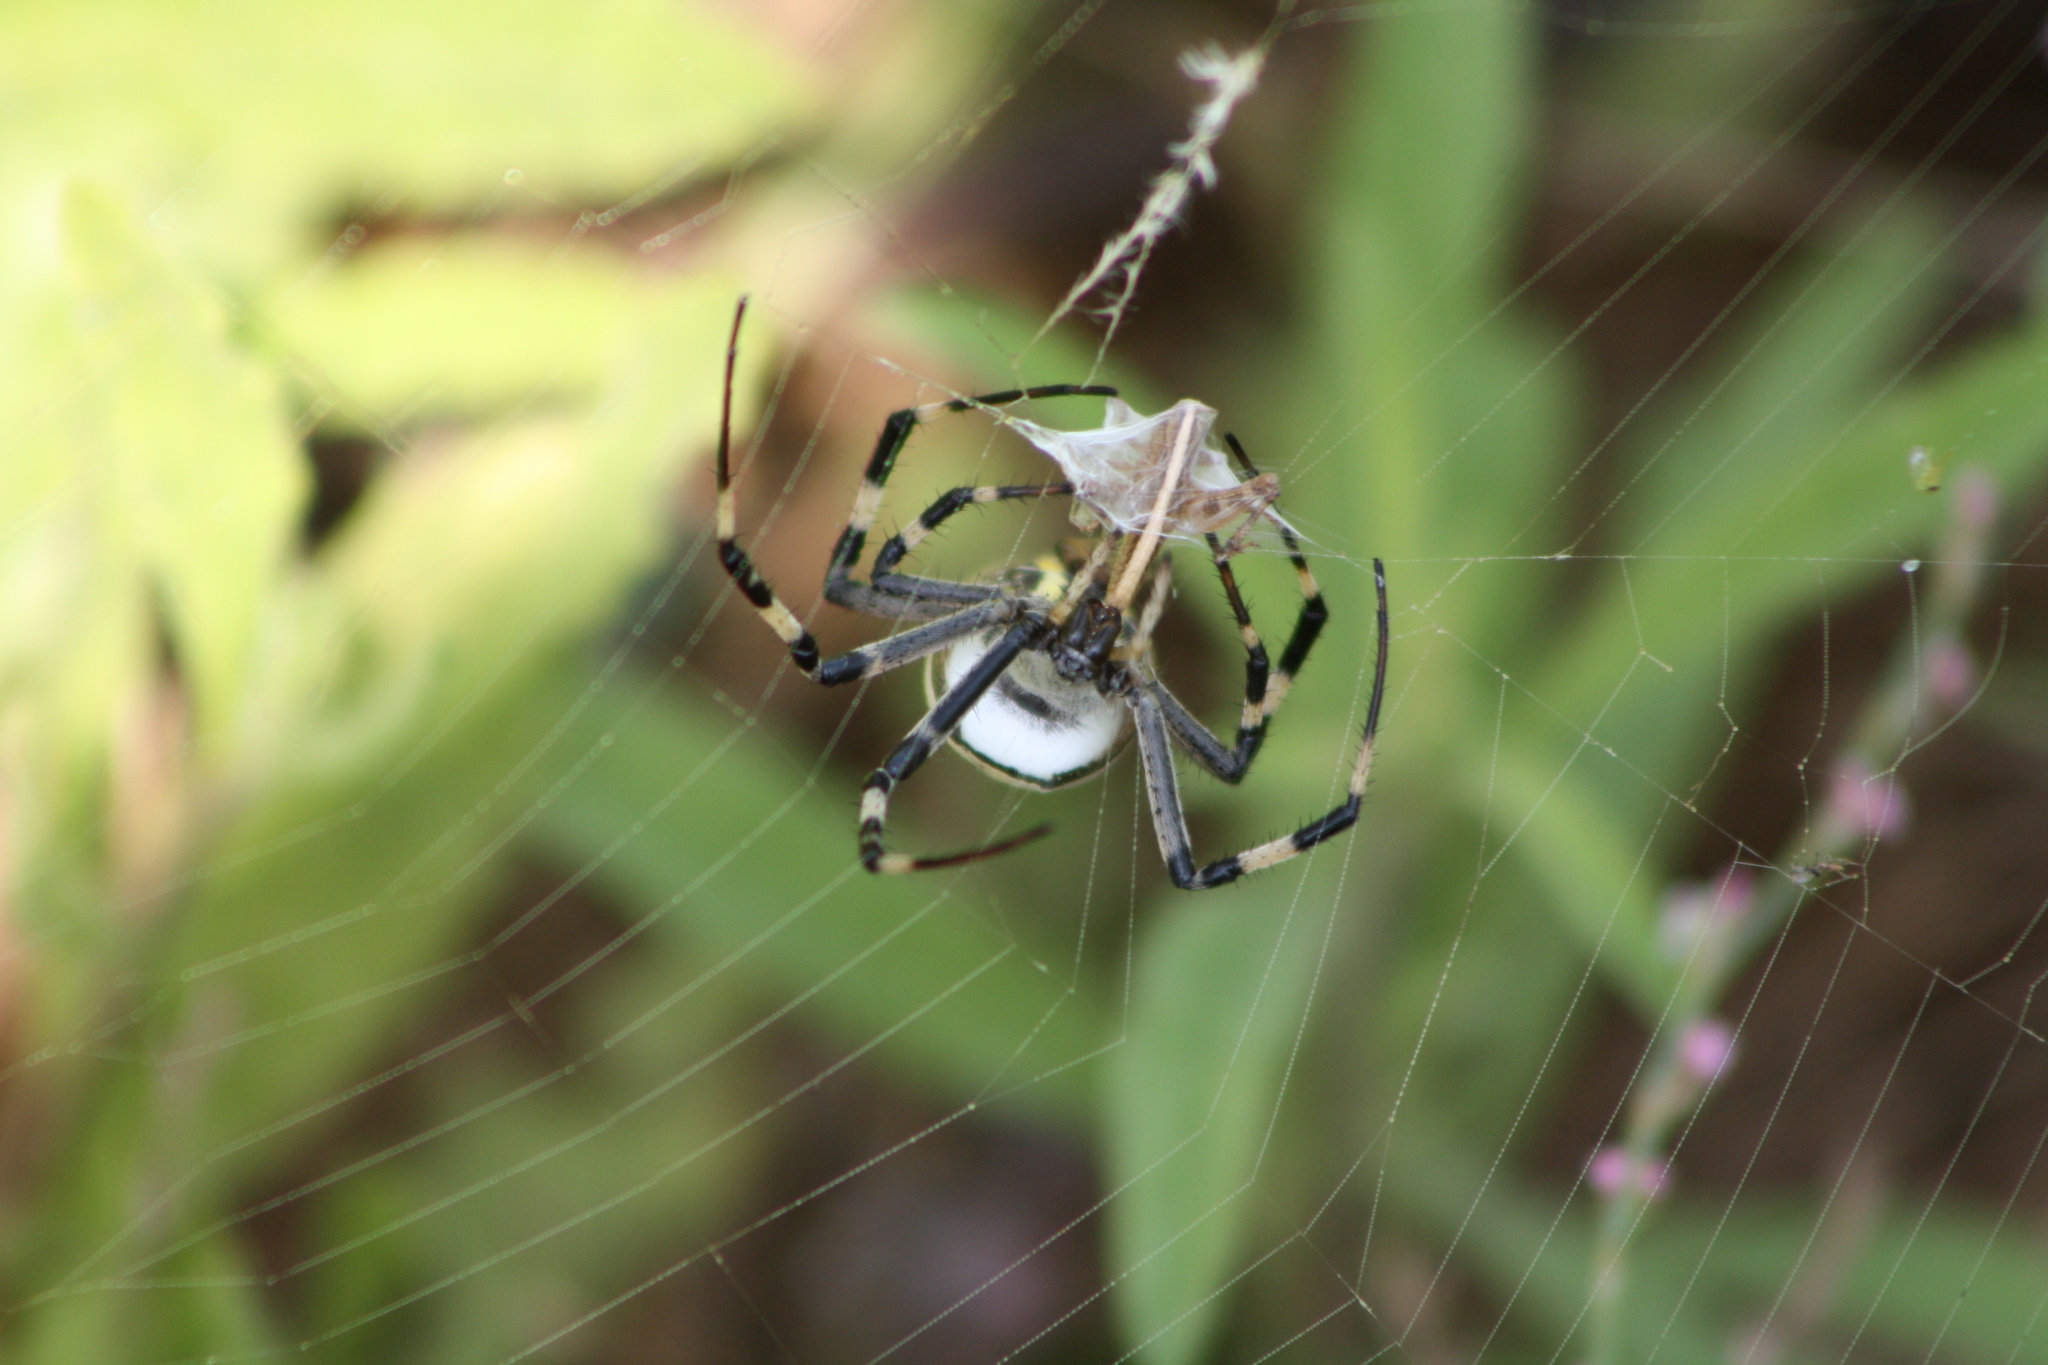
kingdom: Animalia
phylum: Arthropoda
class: Arachnida
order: Araneae
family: Araneidae
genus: Argiope
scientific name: Argiope bruennichi
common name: Wasp spider
